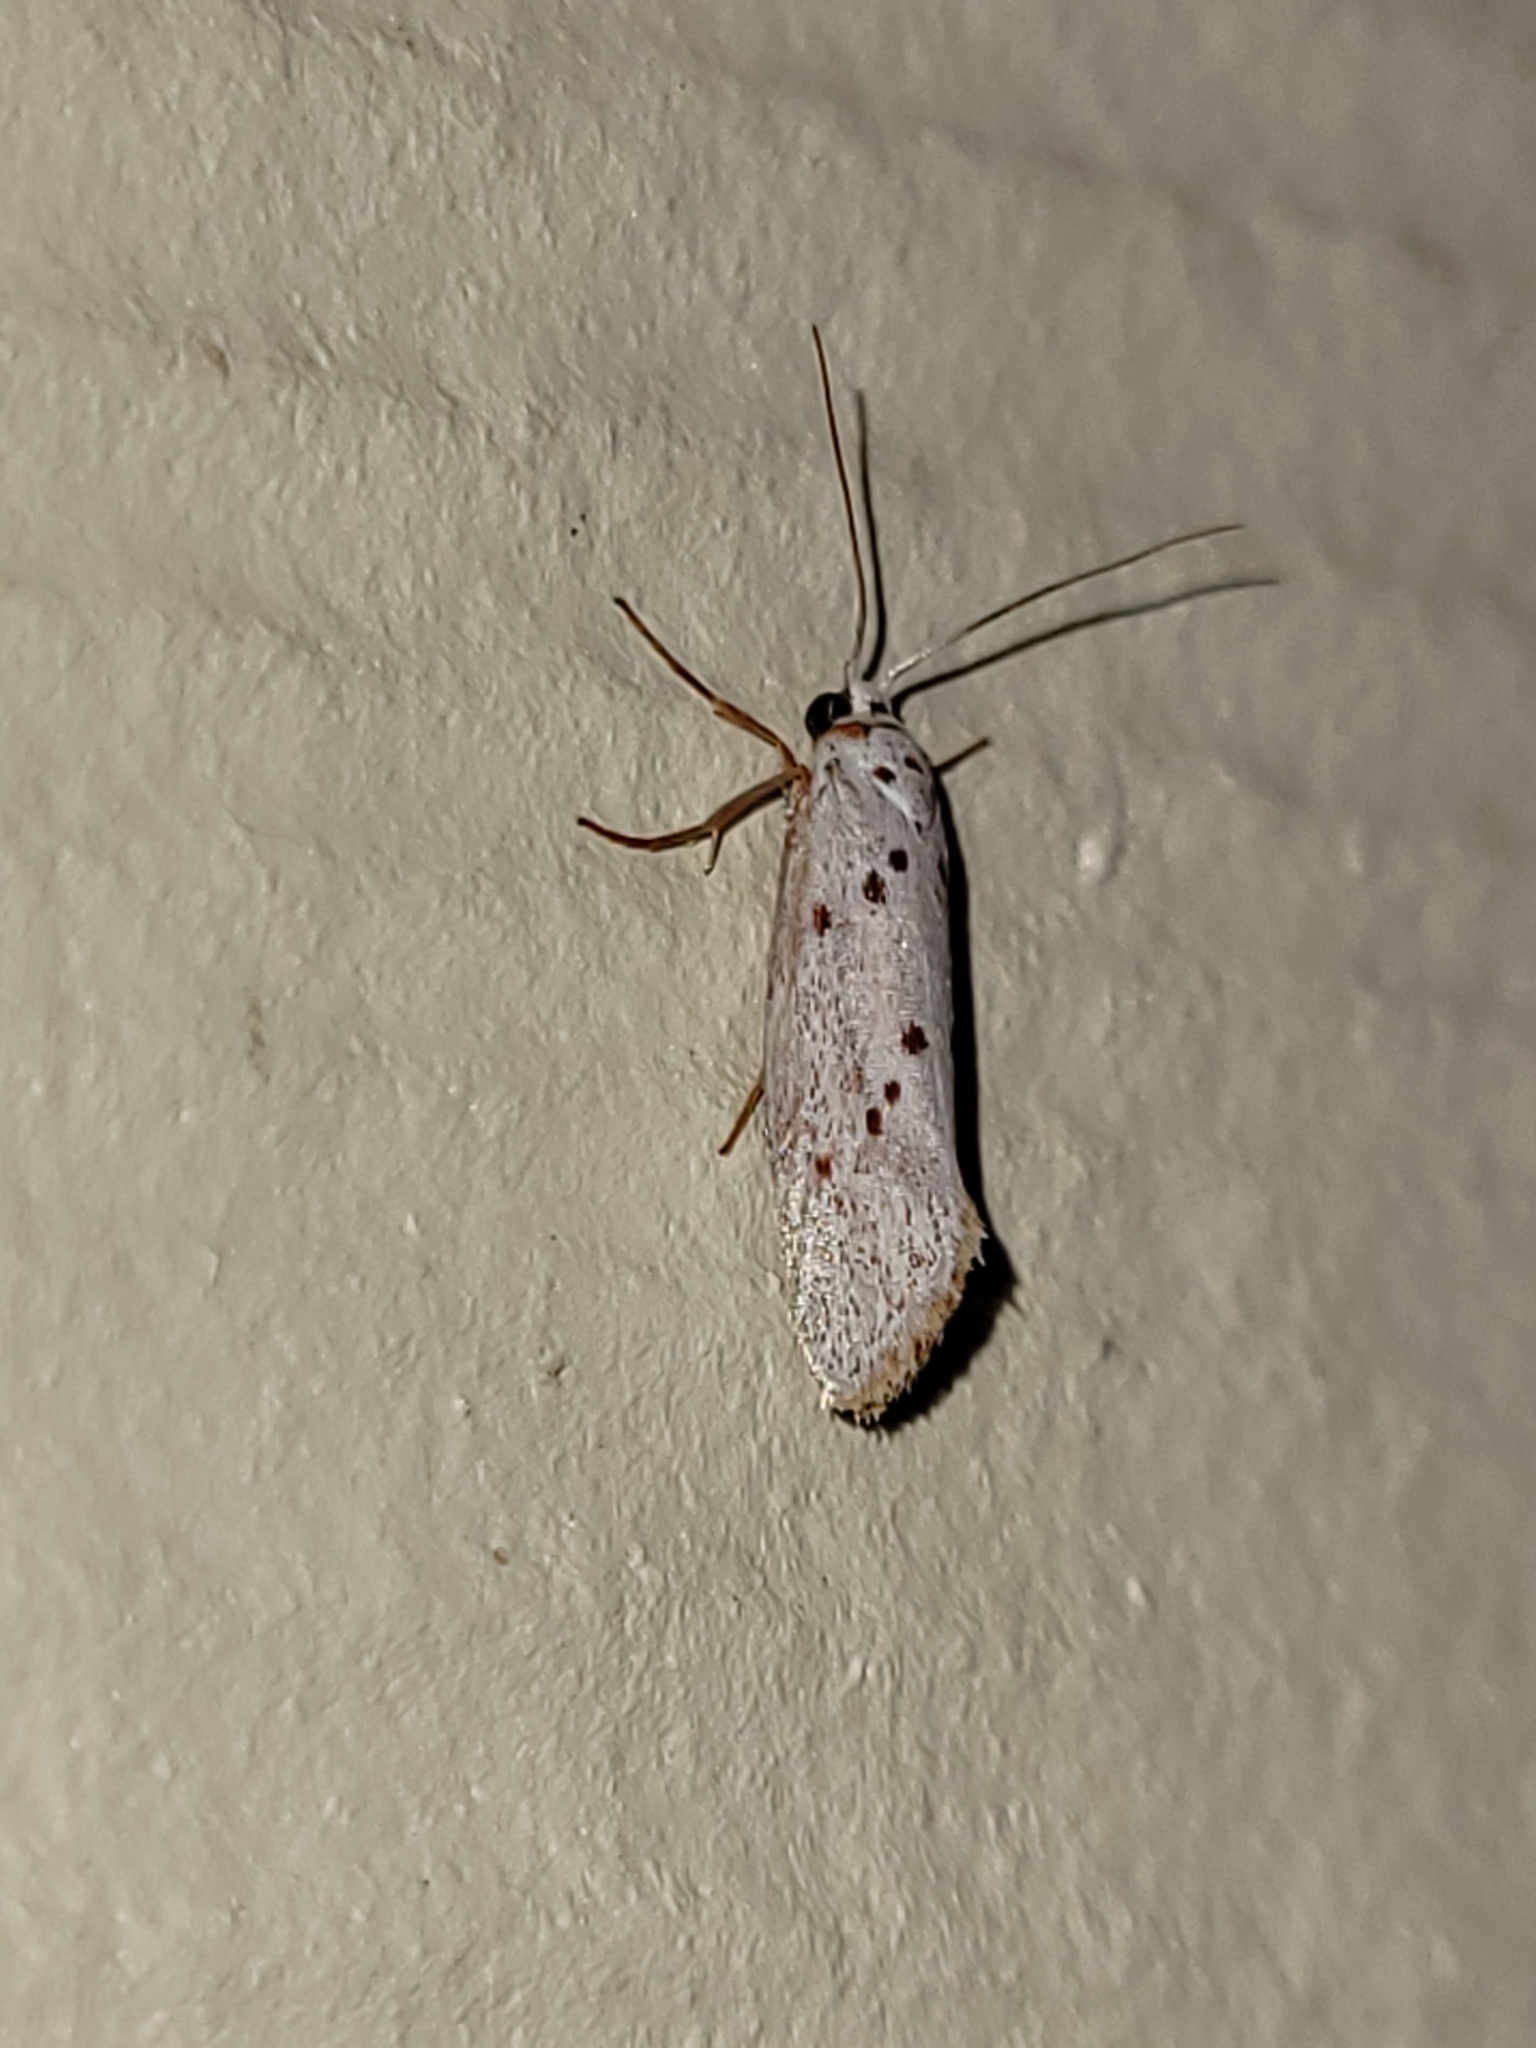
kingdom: Animalia
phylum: Arthropoda
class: Insecta
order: Lepidoptera
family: Lacturidae
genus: Lactura
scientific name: Lactura
